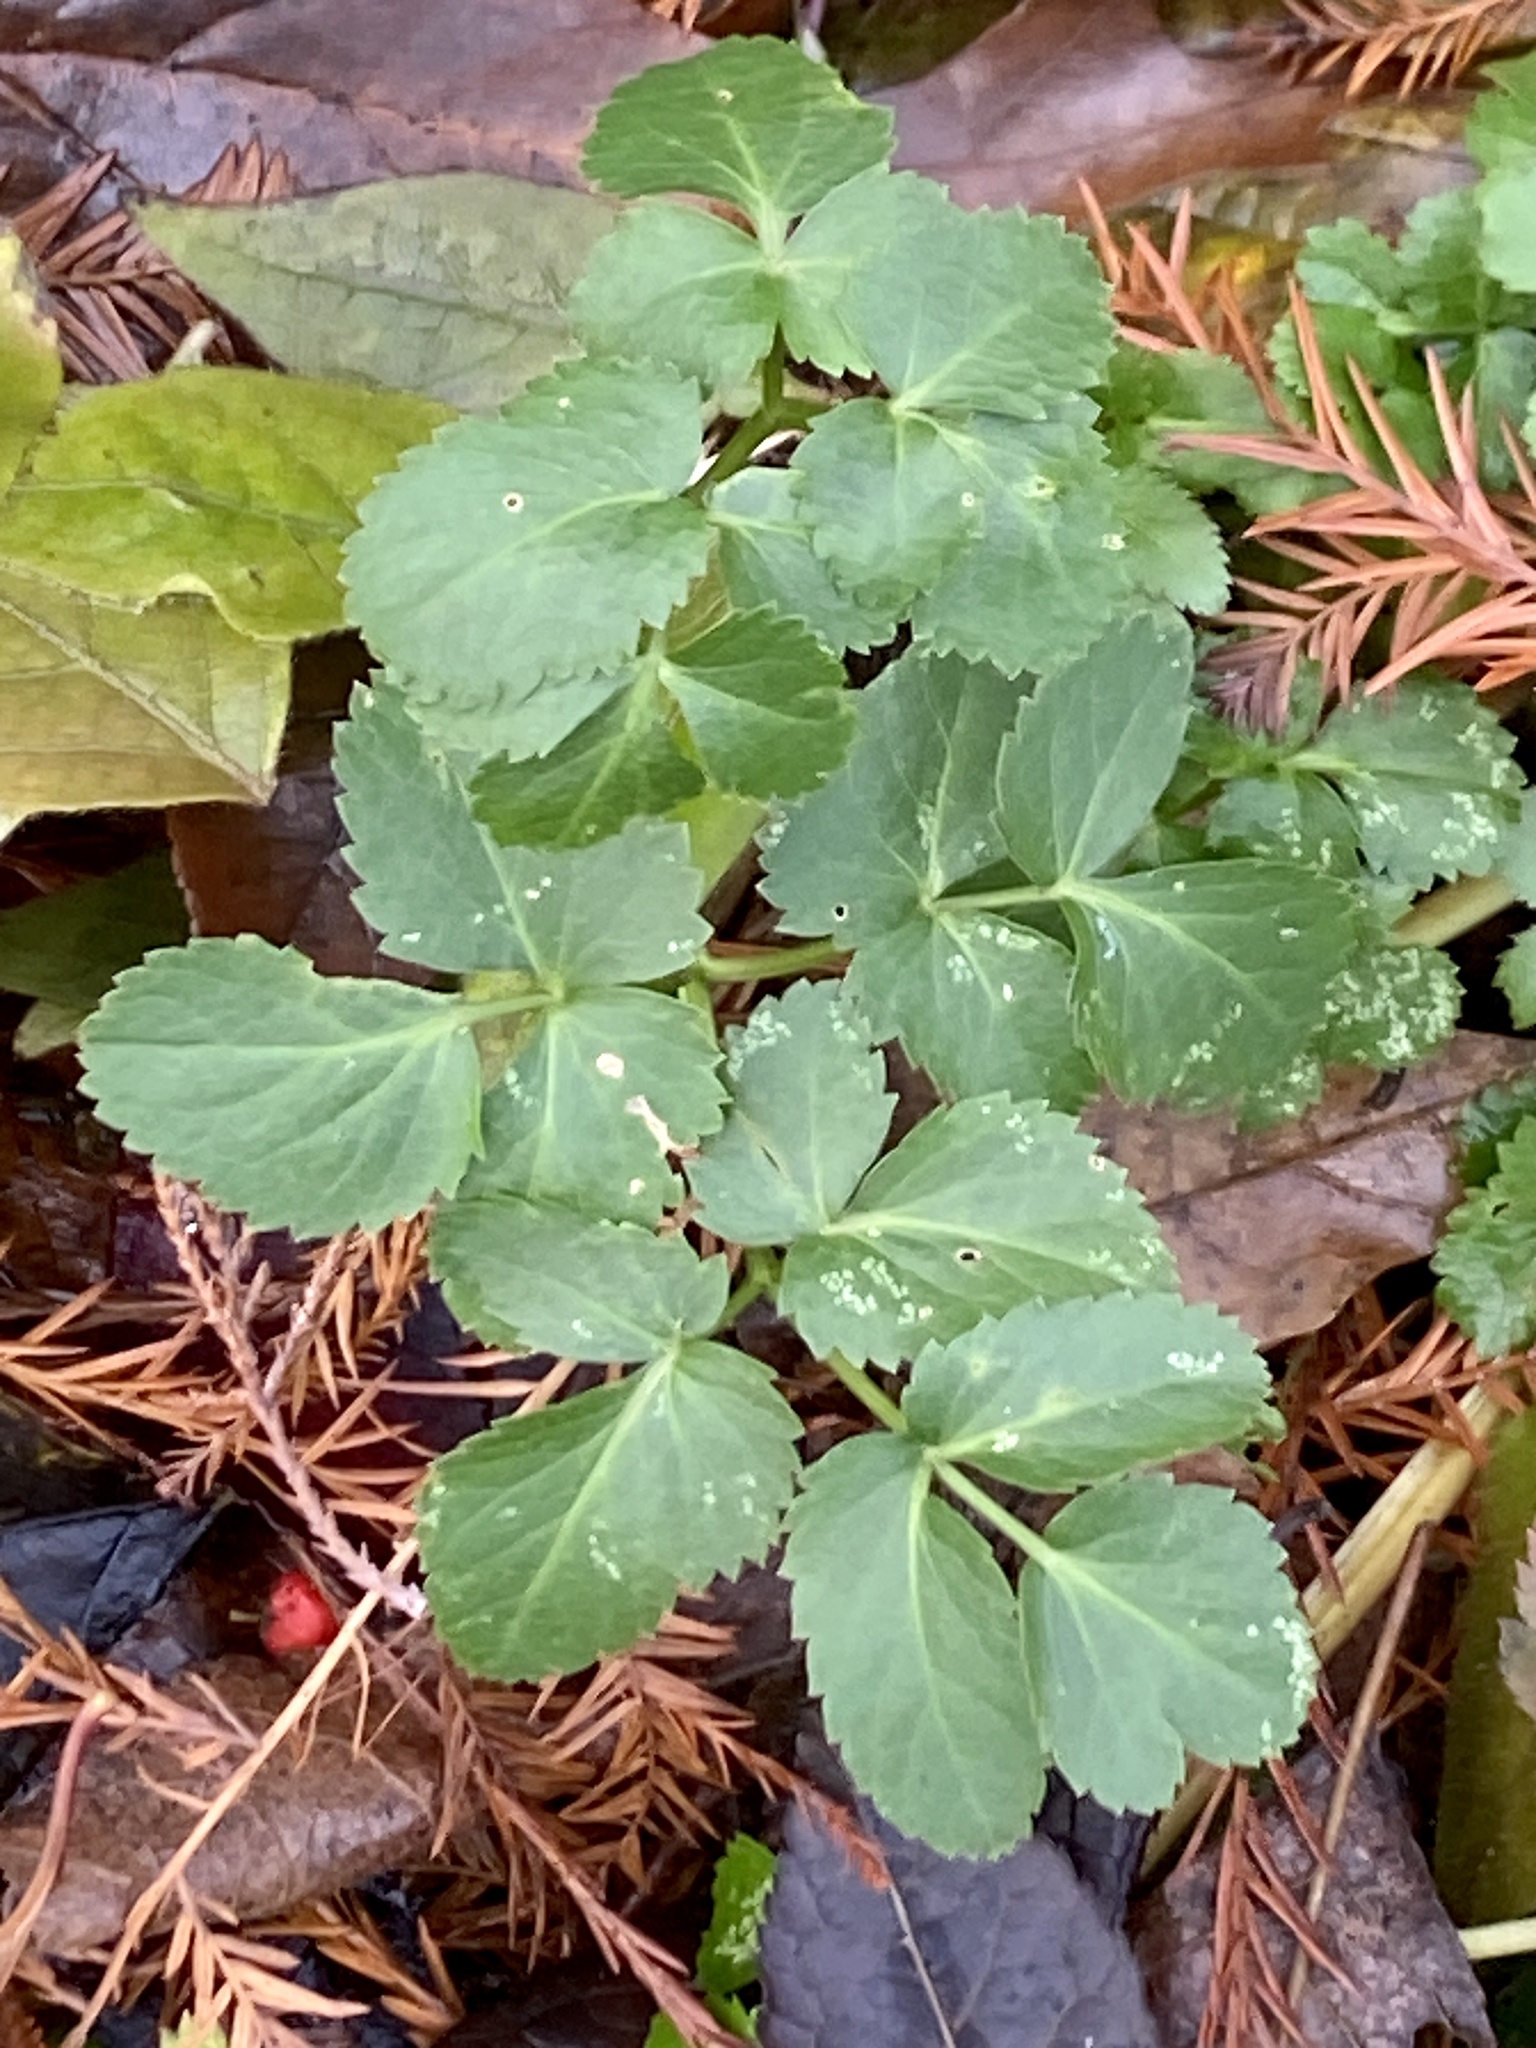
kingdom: Plantae
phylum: Tracheophyta
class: Magnoliopsida
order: Apiales
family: Apiaceae
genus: Zizia
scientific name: Zizia aurea
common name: Golden alexanders
